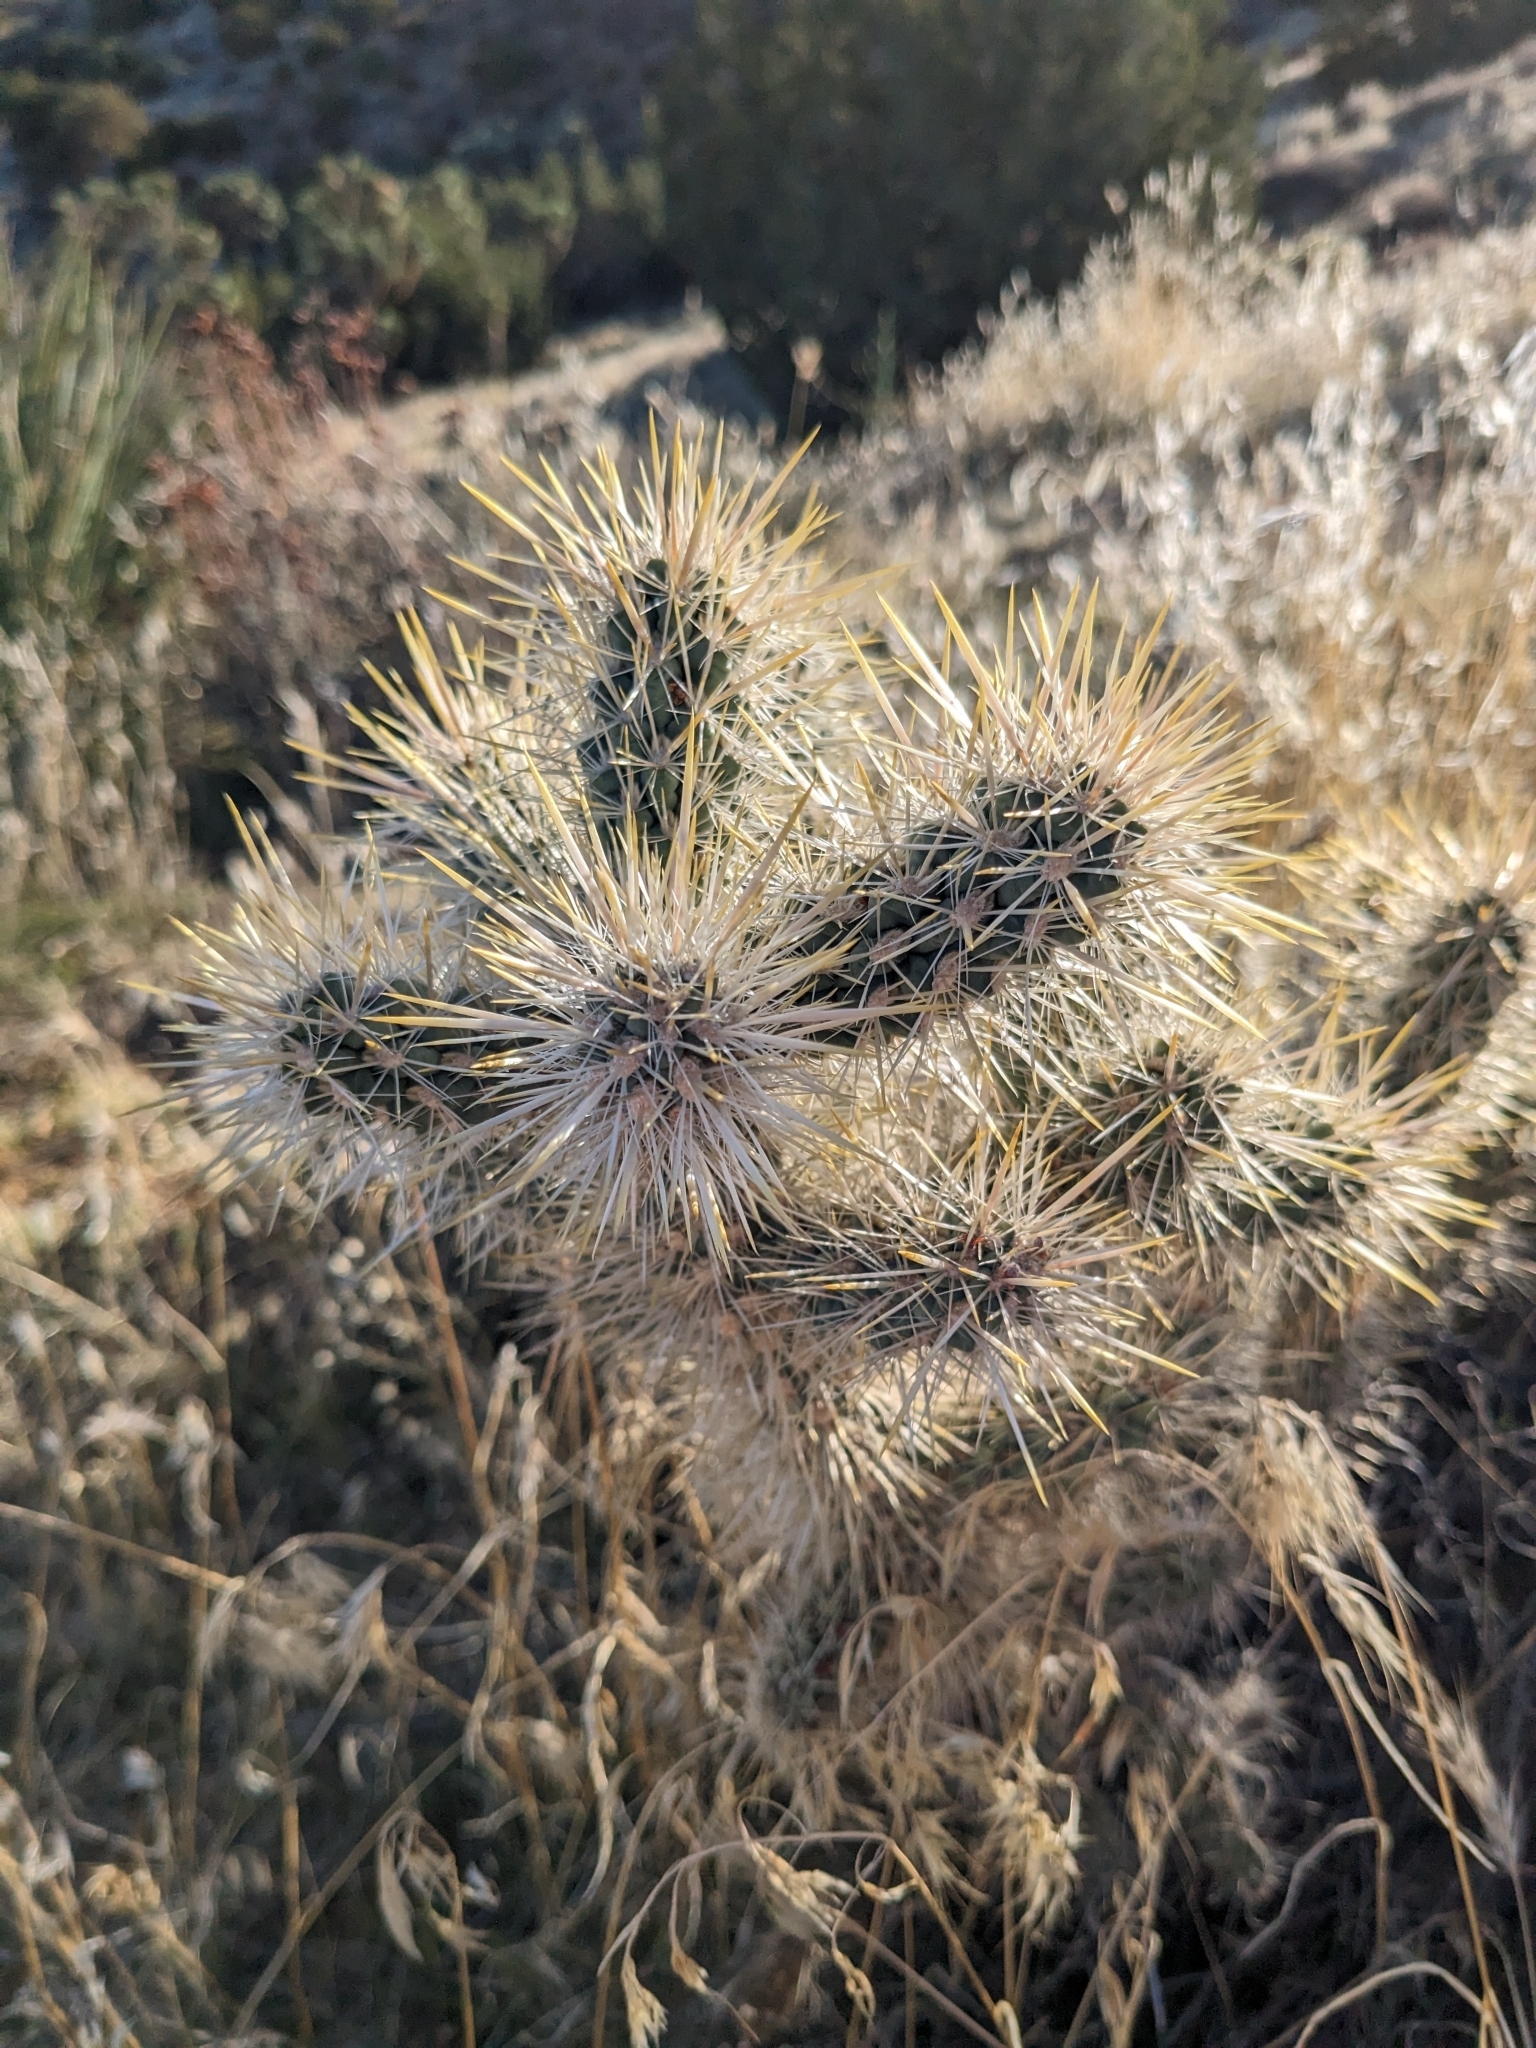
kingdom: Plantae
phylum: Tracheophyta
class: Magnoliopsida
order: Caryophyllales
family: Cactaceae
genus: Cylindropuntia
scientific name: Cylindropuntia echinocarpa
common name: Ground cholla
